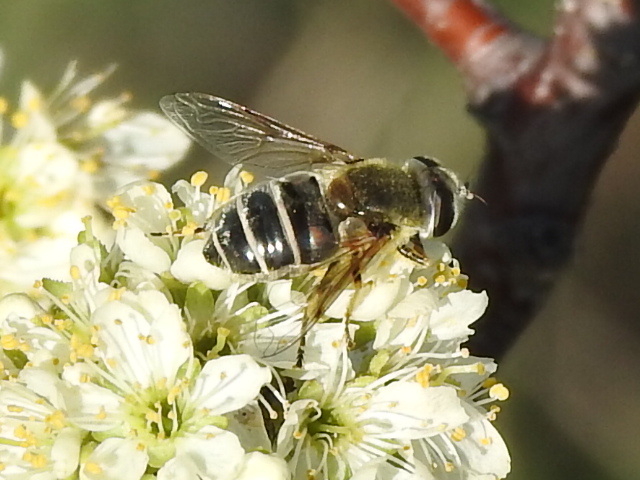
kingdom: Animalia
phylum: Arthropoda
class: Insecta
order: Diptera
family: Syrphidae
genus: Eristalis
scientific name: Eristalis stipator
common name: Yellow-shouldered drone fly
